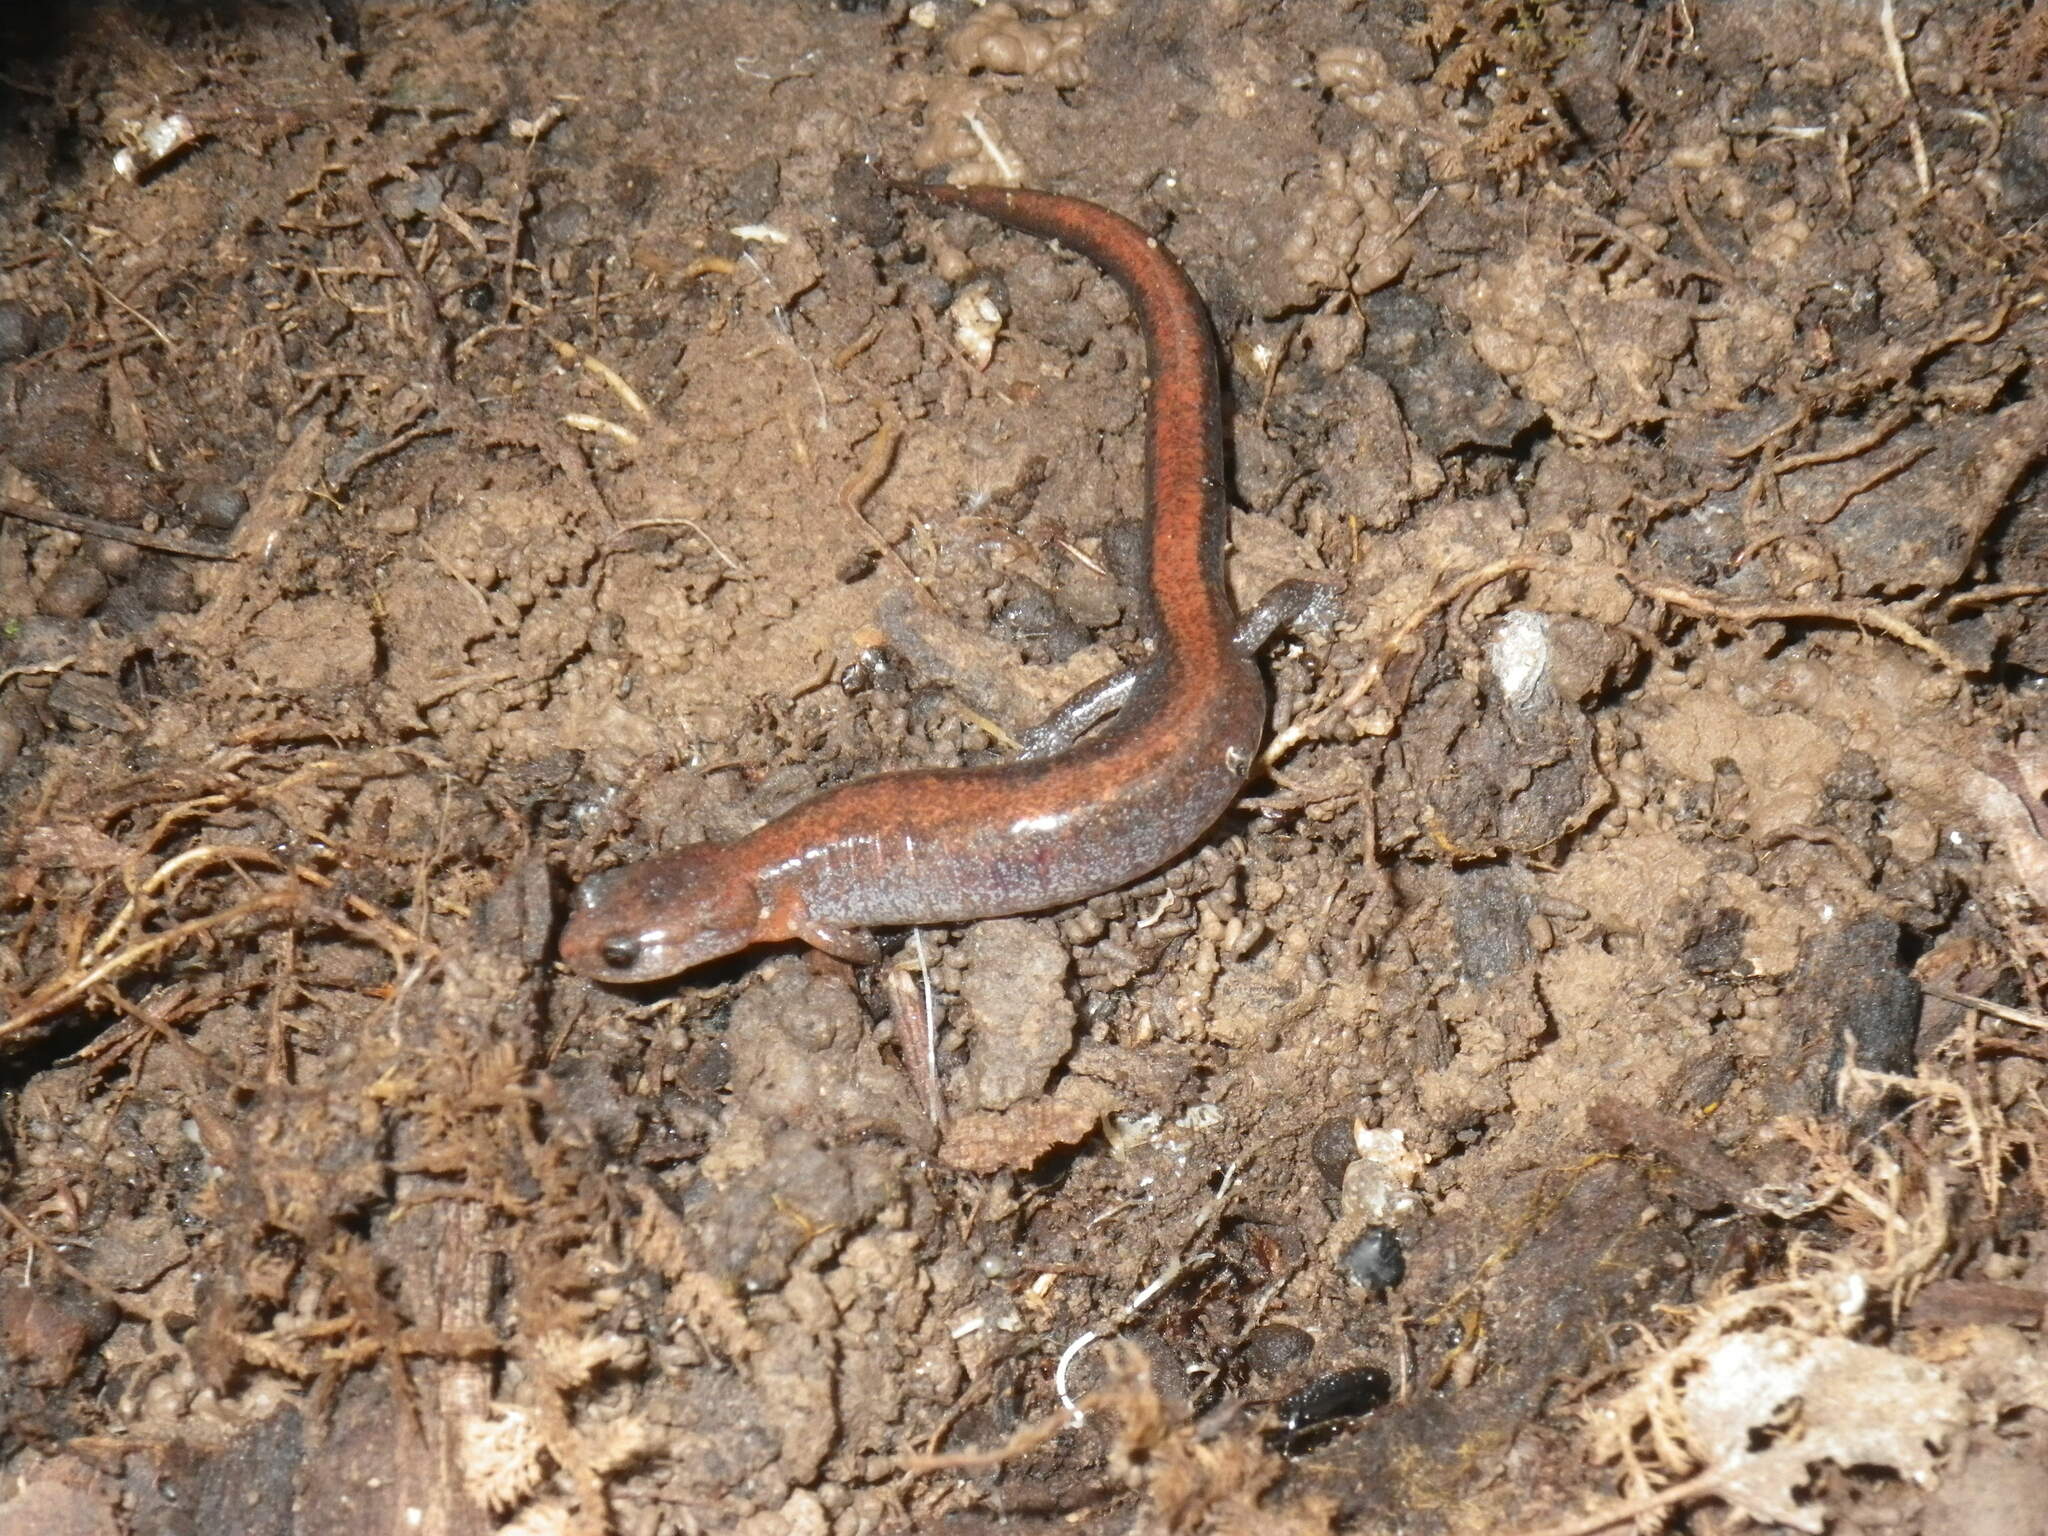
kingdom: Animalia
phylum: Chordata
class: Amphibia
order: Caudata
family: Plethodontidae
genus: Plethodon
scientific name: Plethodon dorsalis
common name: Northern zigzag salamander
